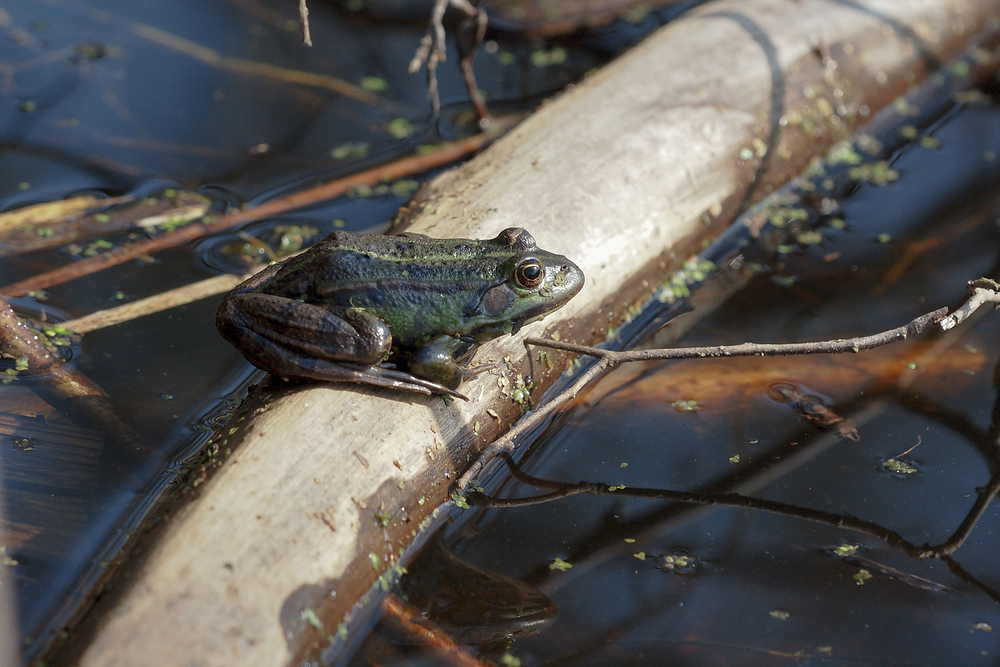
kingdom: Animalia
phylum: Chordata
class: Amphibia
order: Anura
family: Ranidae
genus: Pelophylax
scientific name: Pelophylax
